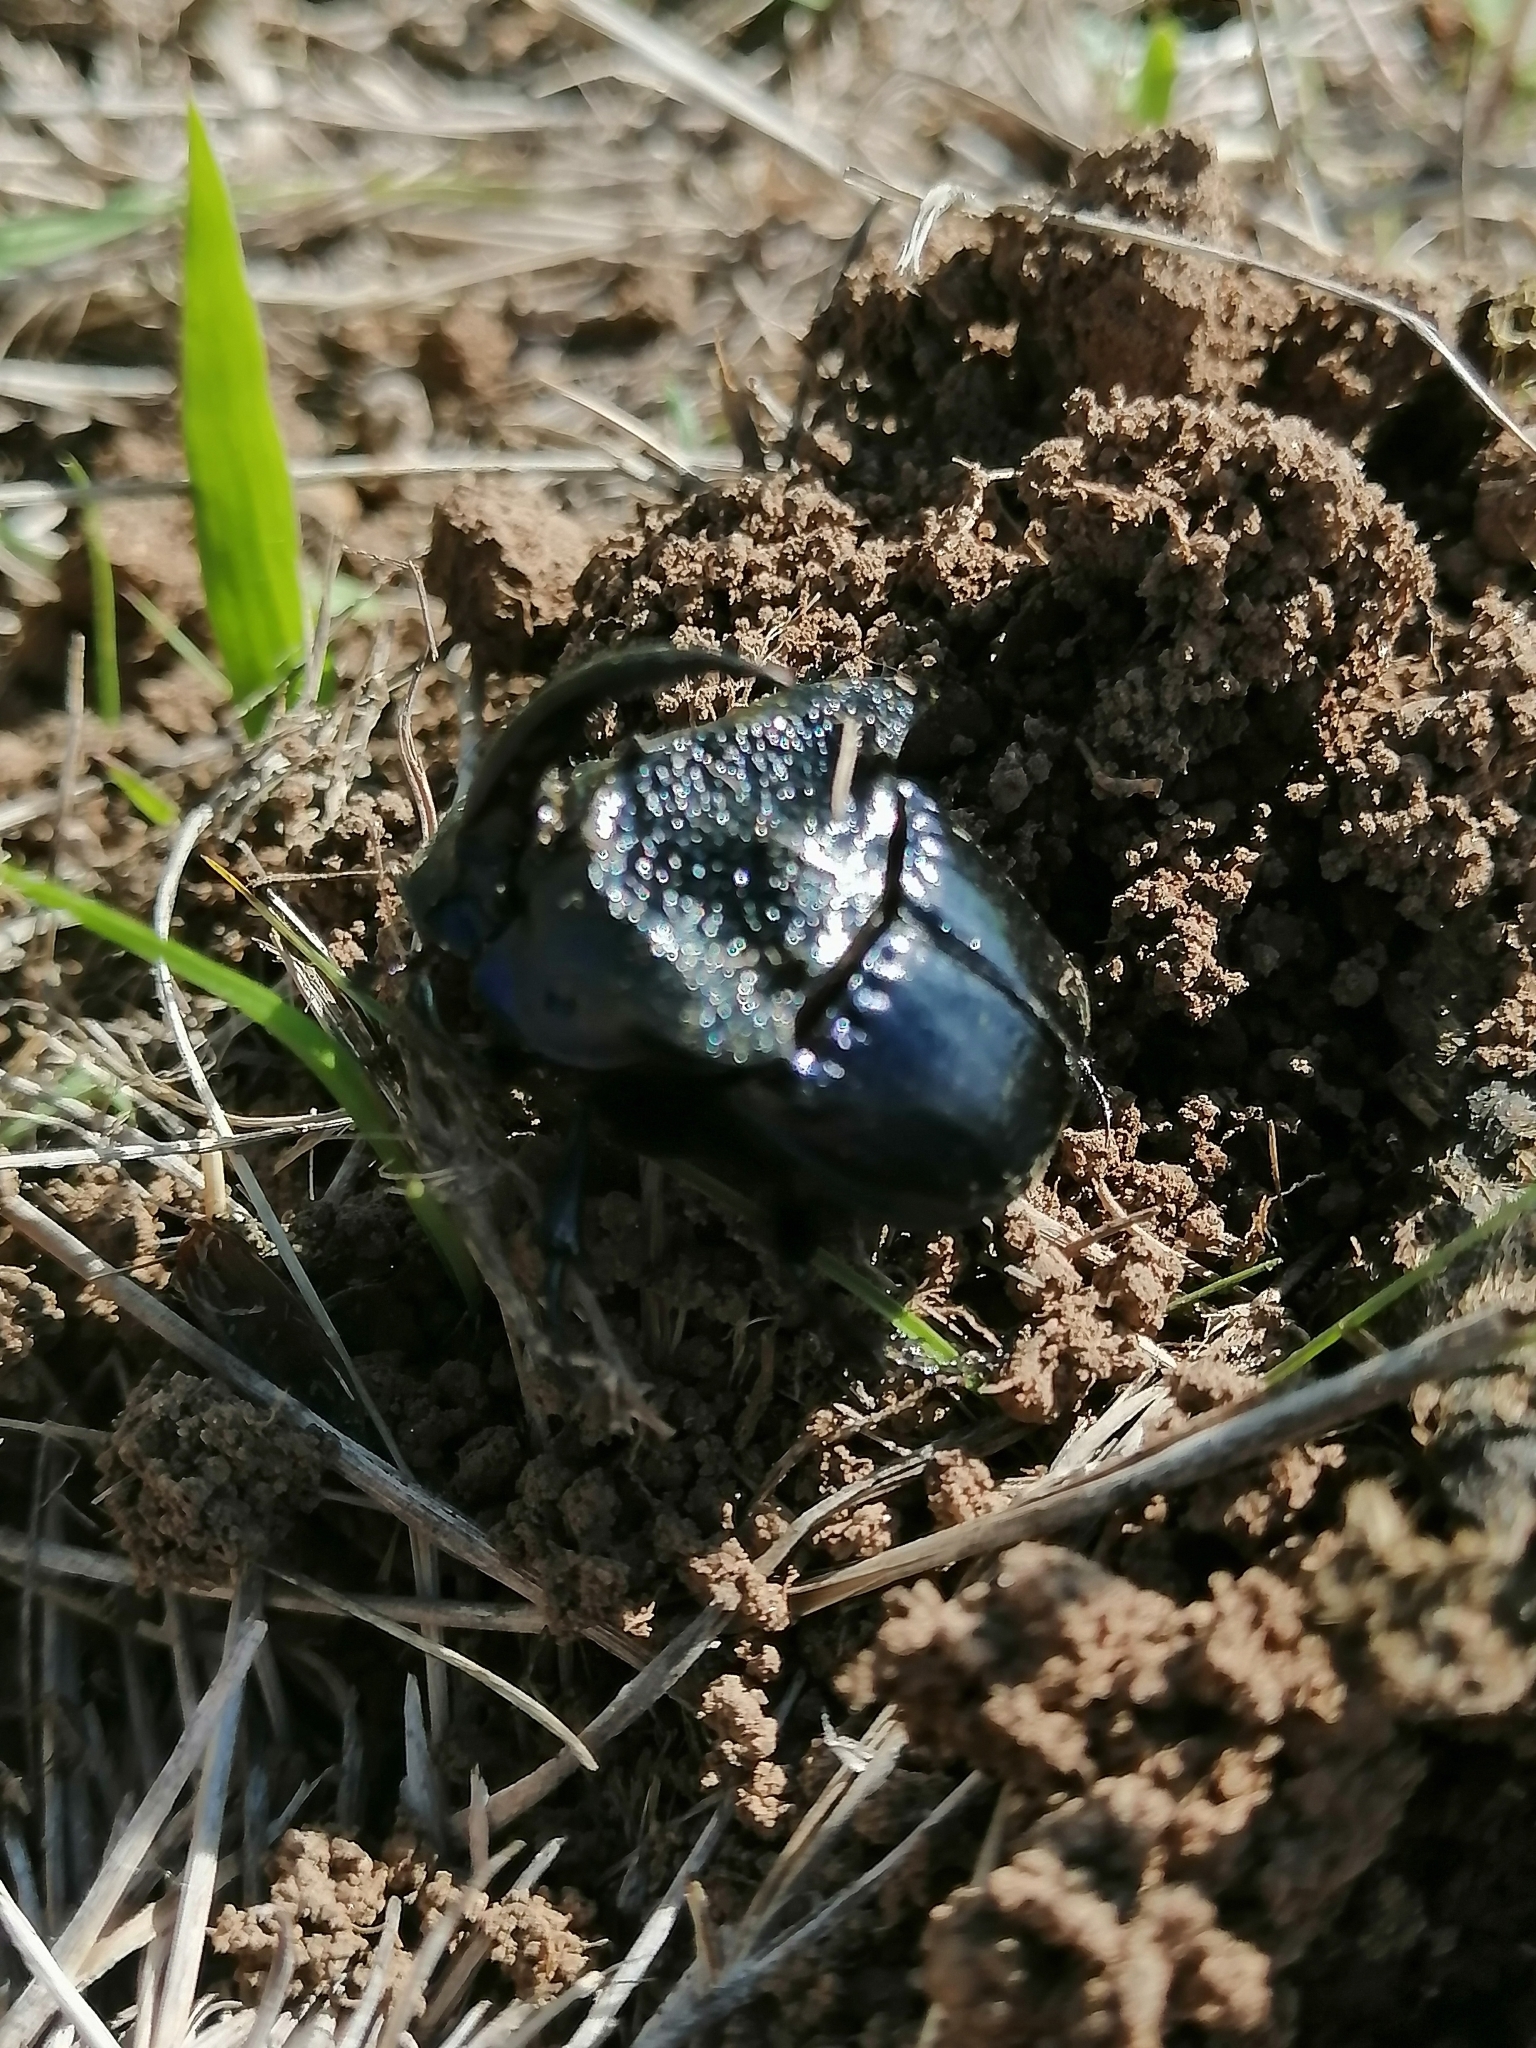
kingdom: Animalia
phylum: Arthropoda
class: Insecta
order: Coleoptera
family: Scarabaeidae
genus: Phanaeus
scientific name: Phanaeus quadridens
